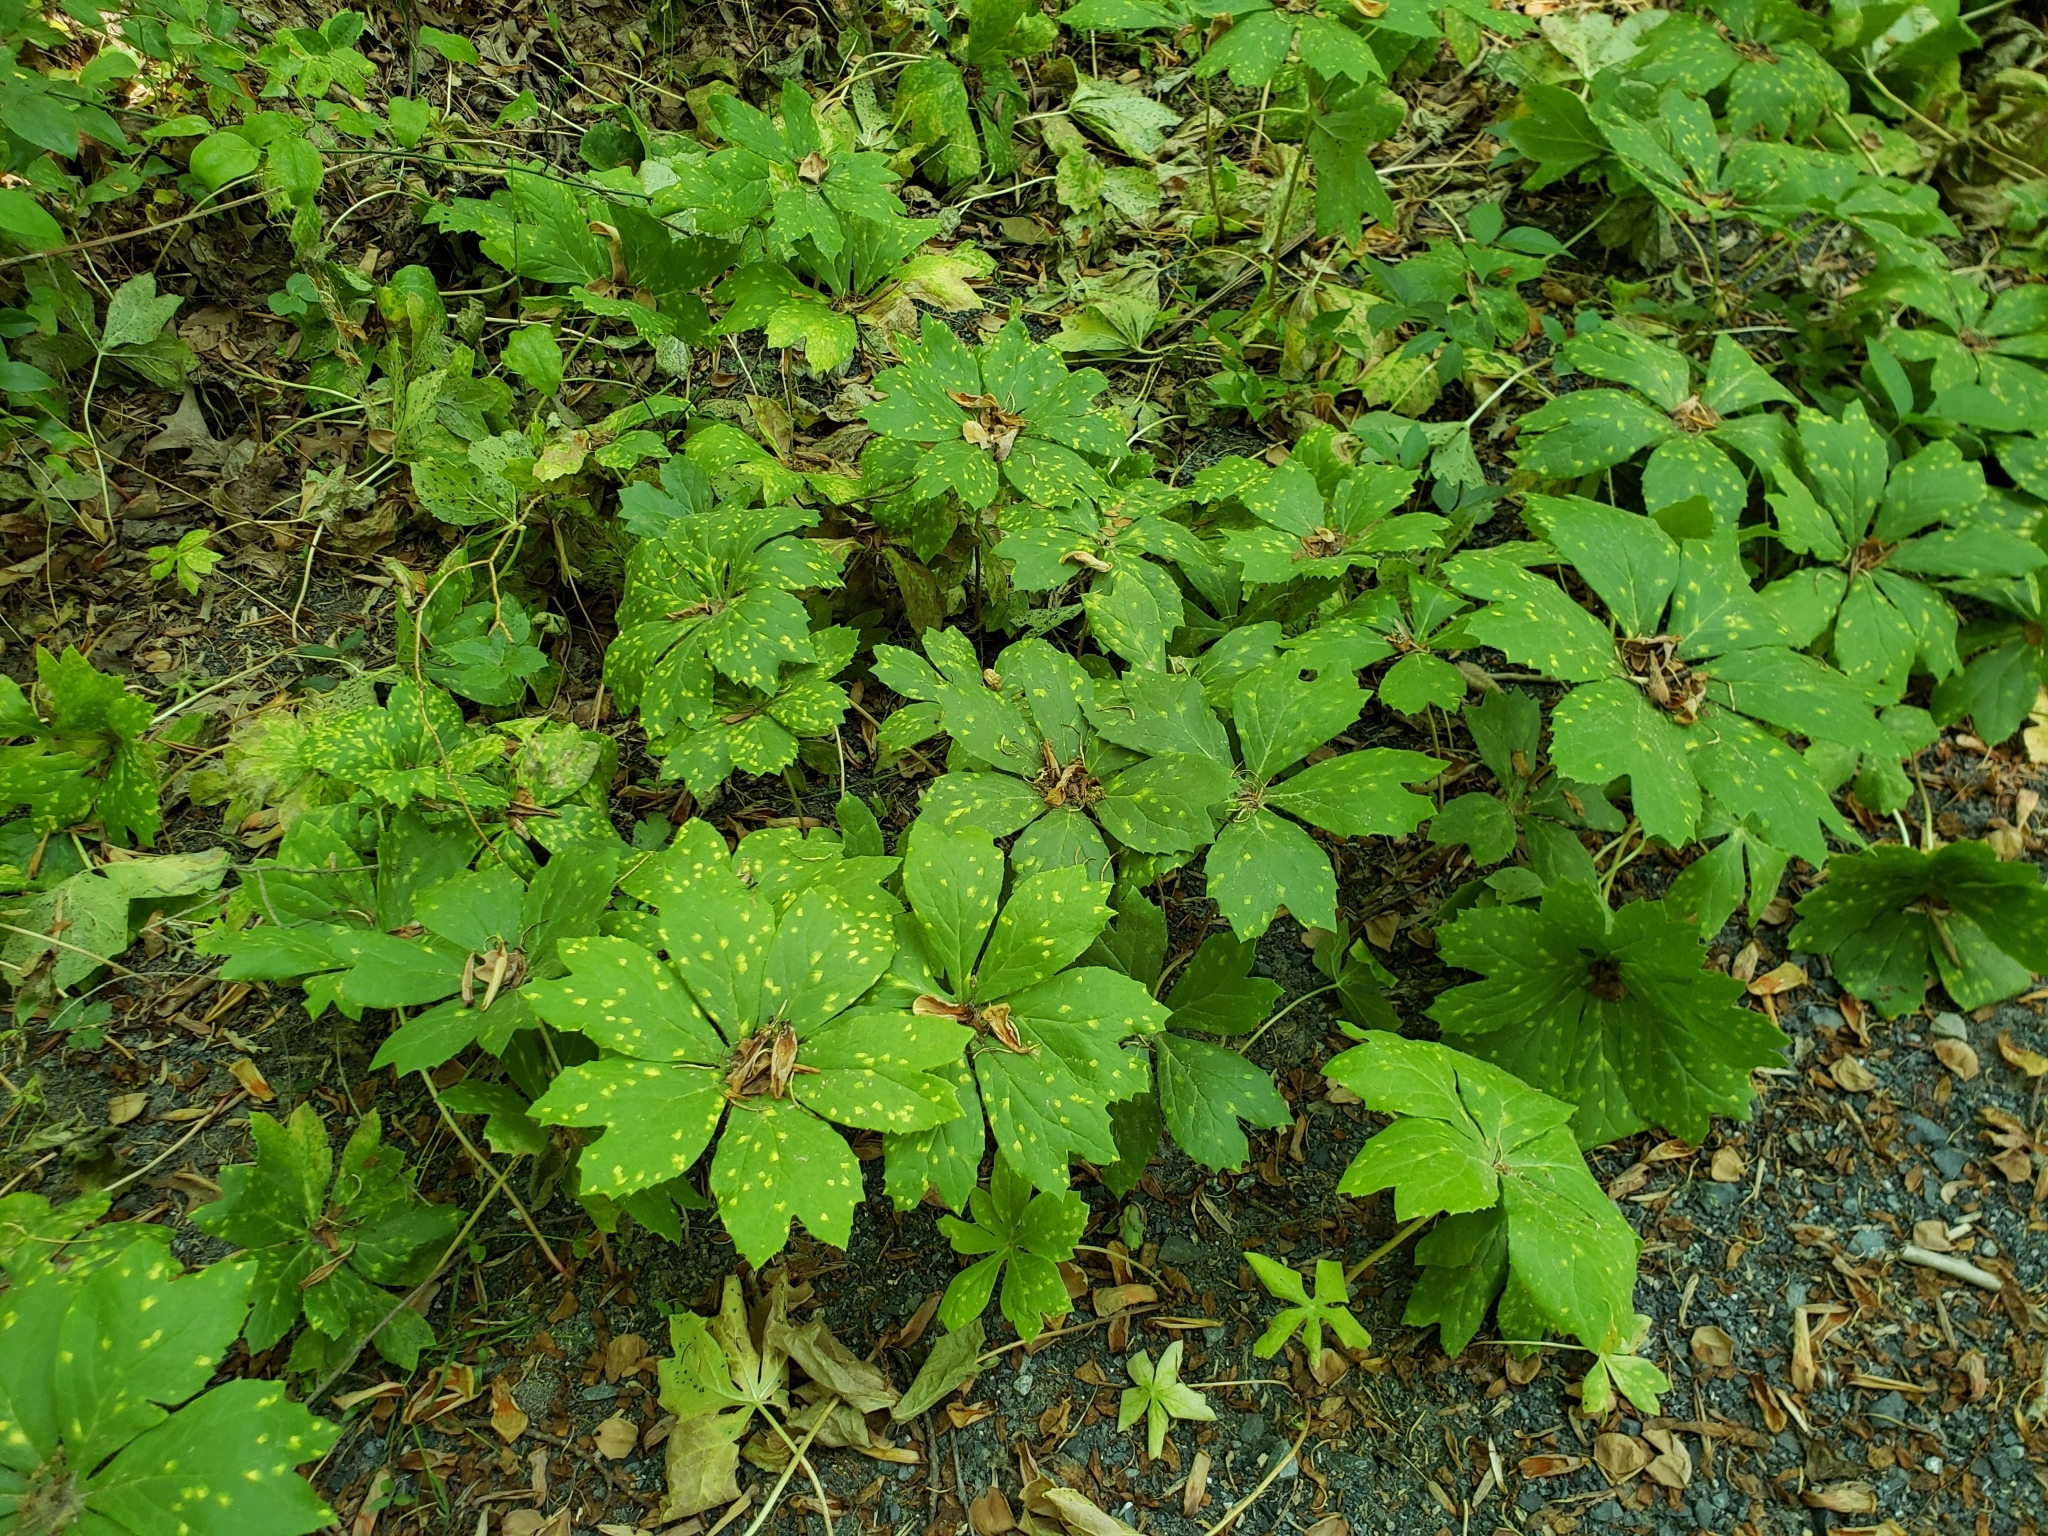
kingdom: Plantae
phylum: Tracheophyta
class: Magnoliopsida
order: Ranunculales
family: Berberidaceae
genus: Podophyllum
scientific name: Podophyllum peltatum
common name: Wild mandrake
